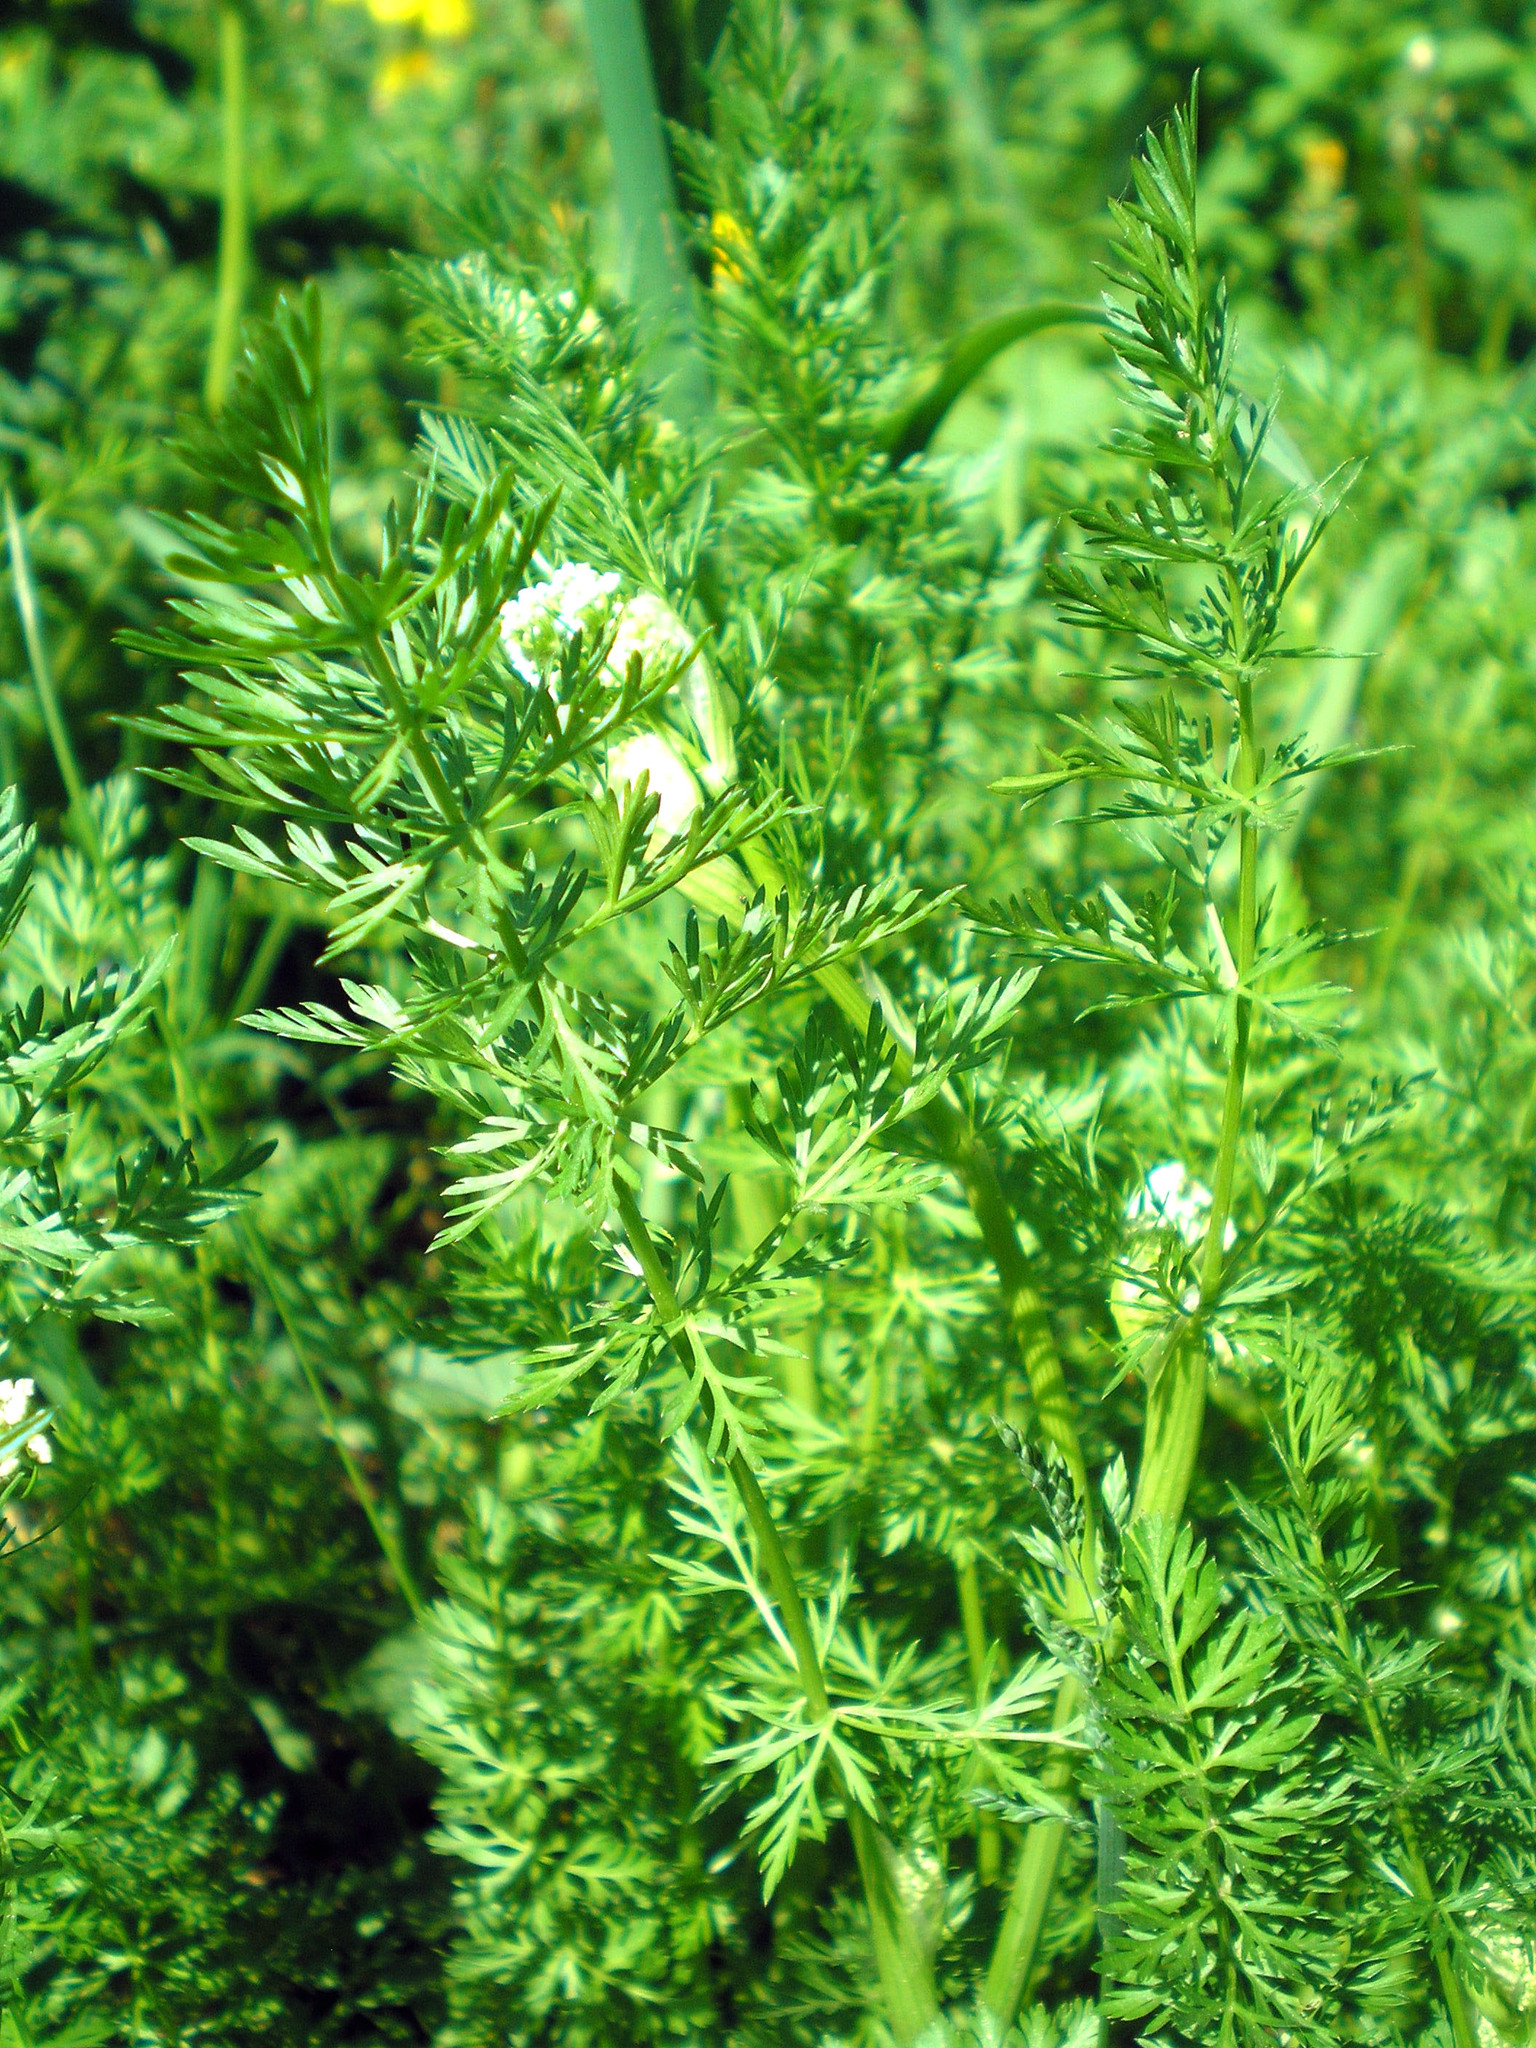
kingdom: Plantae
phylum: Tracheophyta
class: Magnoliopsida
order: Apiales
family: Apiaceae
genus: Carum
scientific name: Carum carvi
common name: Caraway
